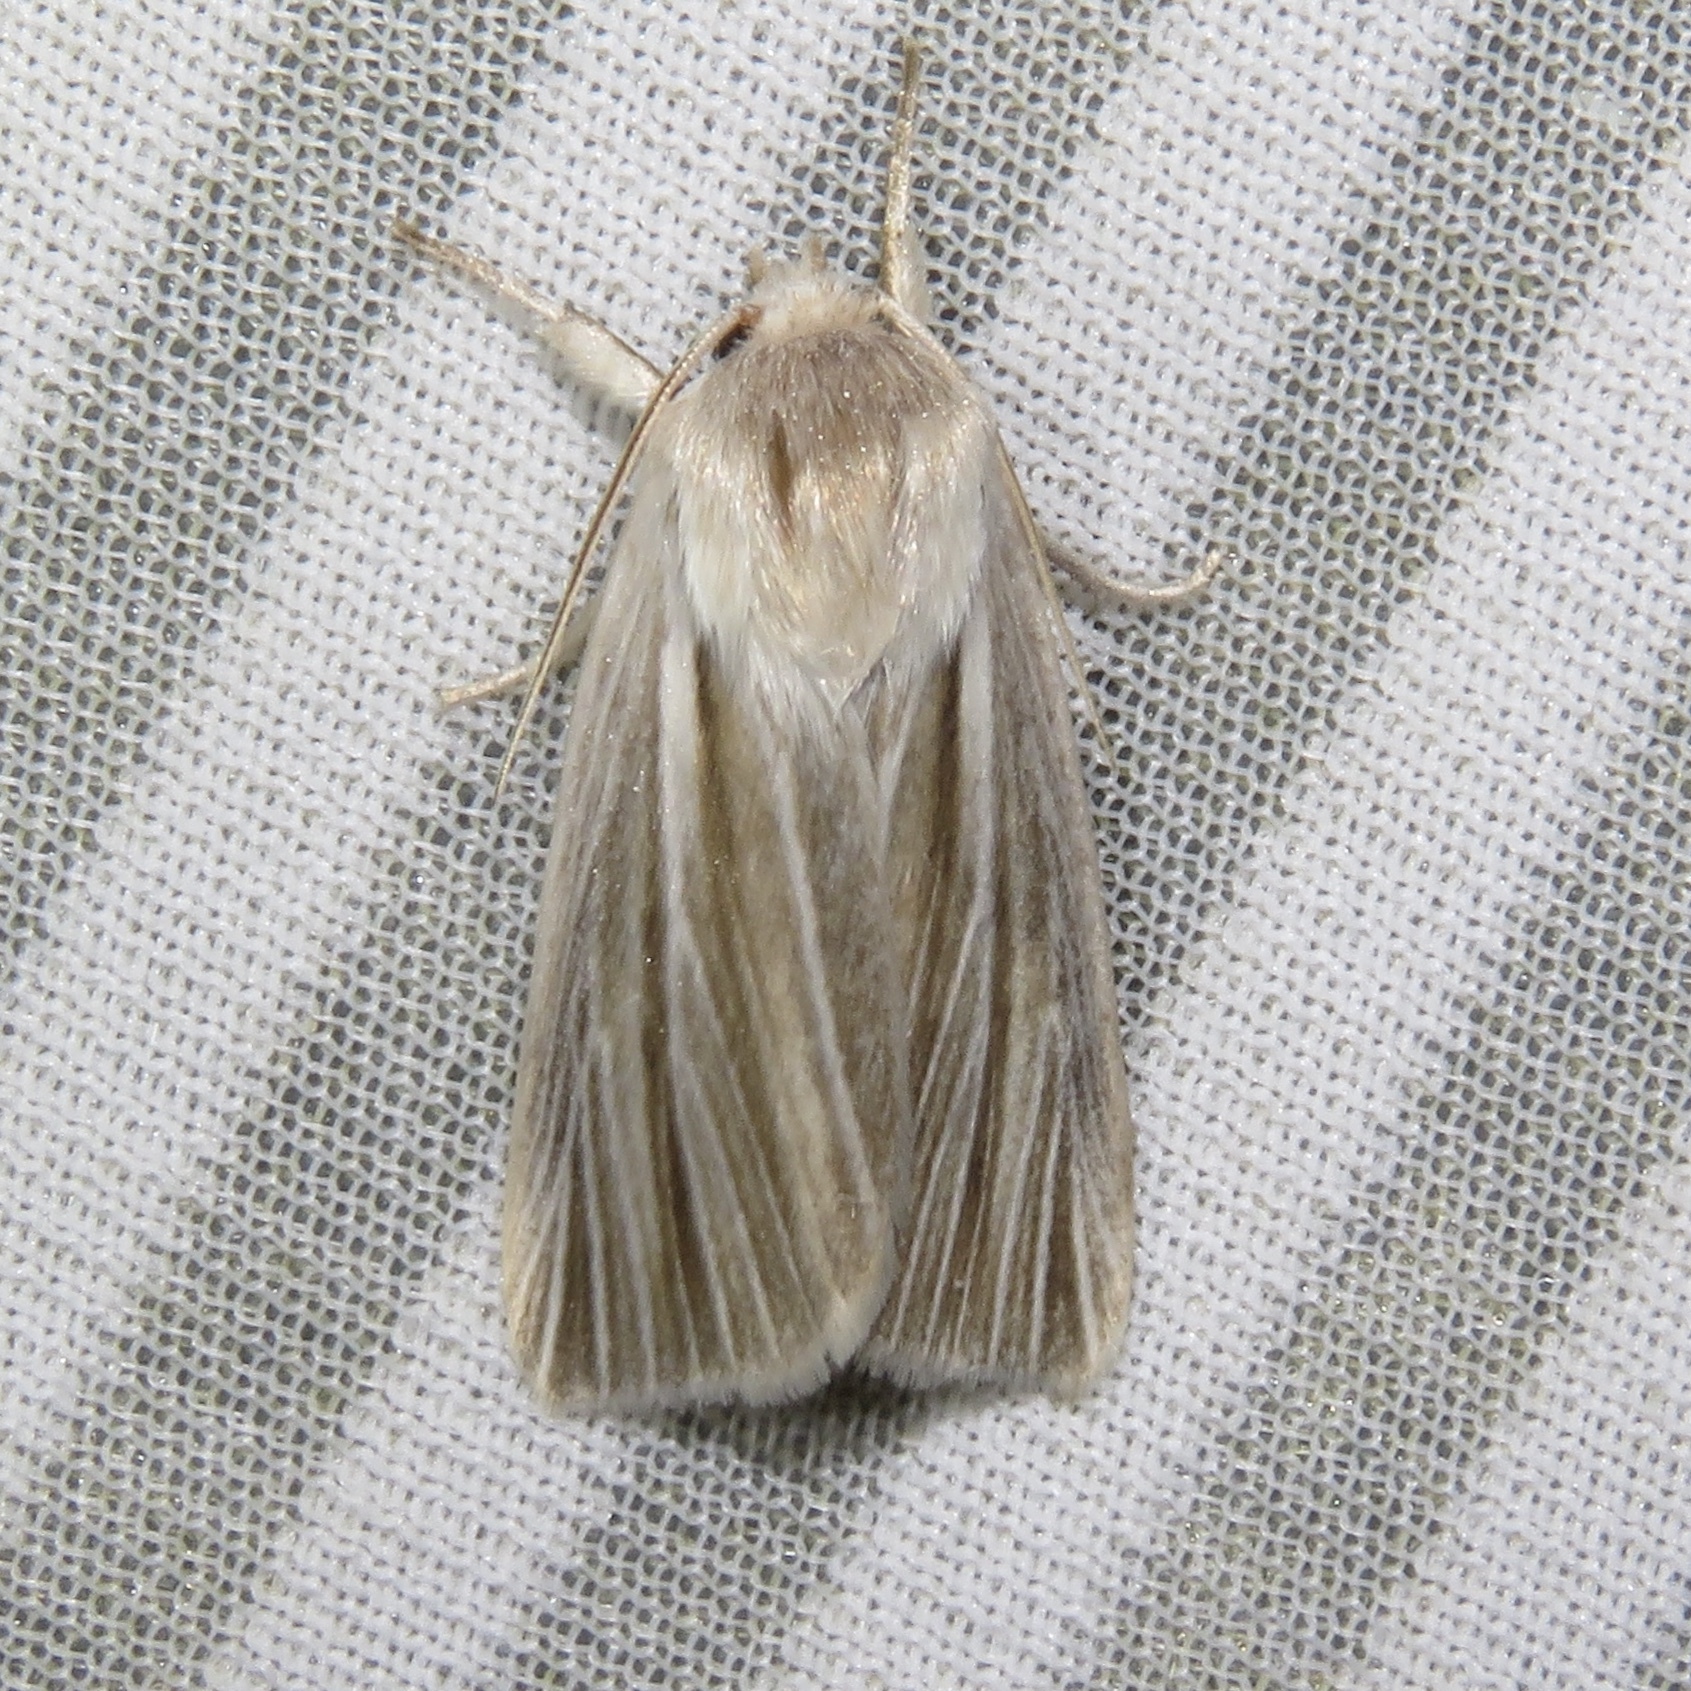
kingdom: Animalia
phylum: Arthropoda
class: Insecta
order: Lepidoptera
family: Noctuidae
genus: Acronicta
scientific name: Acronicta insularis
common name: Henry's marsh moth
